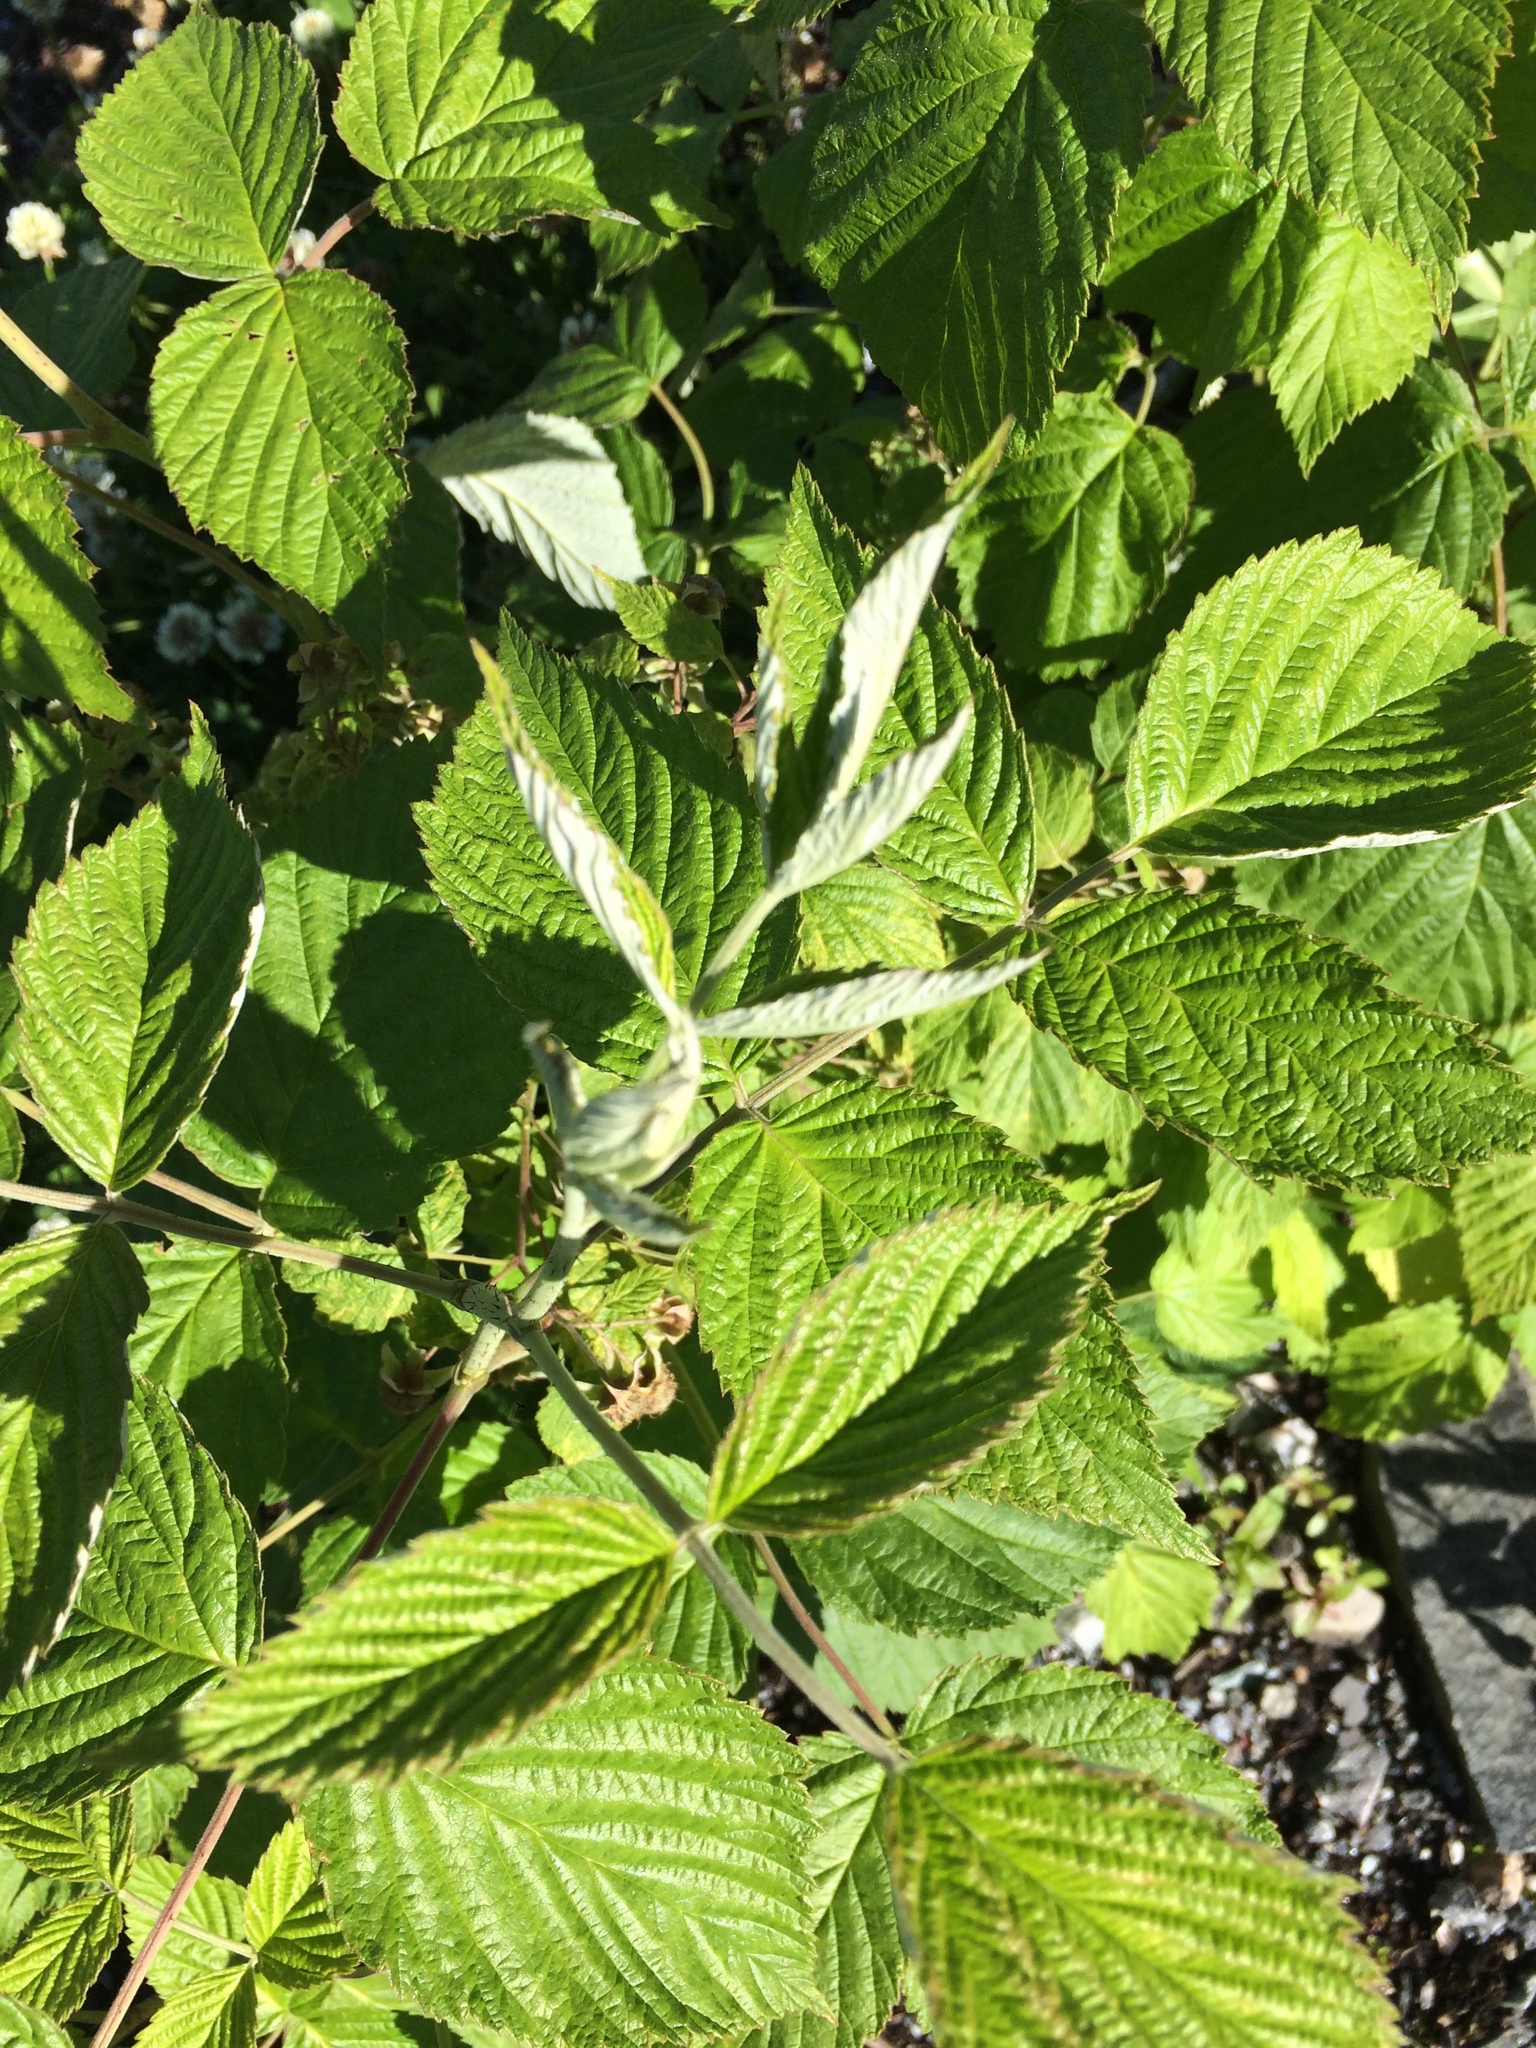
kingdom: Plantae
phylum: Tracheophyta
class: Magnoliopsida
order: Rosales
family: Rosaceae
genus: Rubus
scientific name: Rubus idaeus
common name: Raspberry
